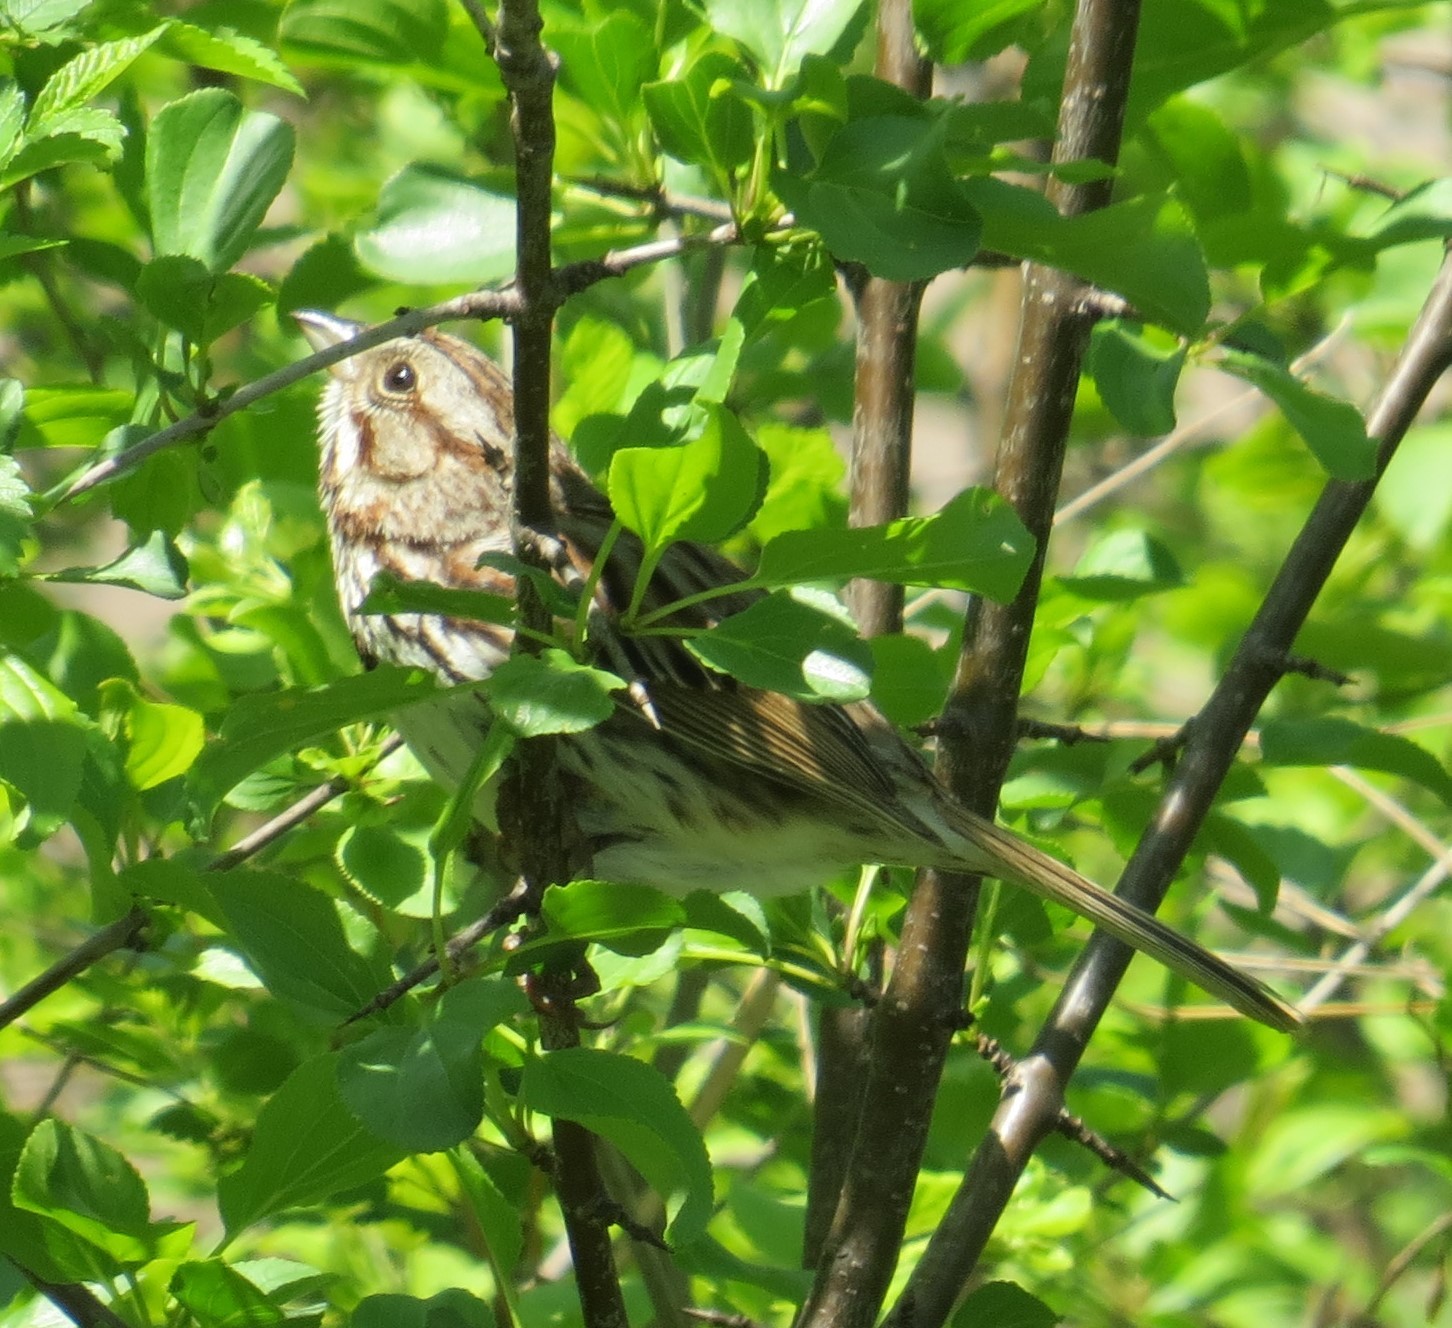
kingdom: Animalia
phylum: Chordata
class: Aves
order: Passeriformes
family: Passerellidae
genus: Melospiza
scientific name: Melospiza melodia
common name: Song sparrow
